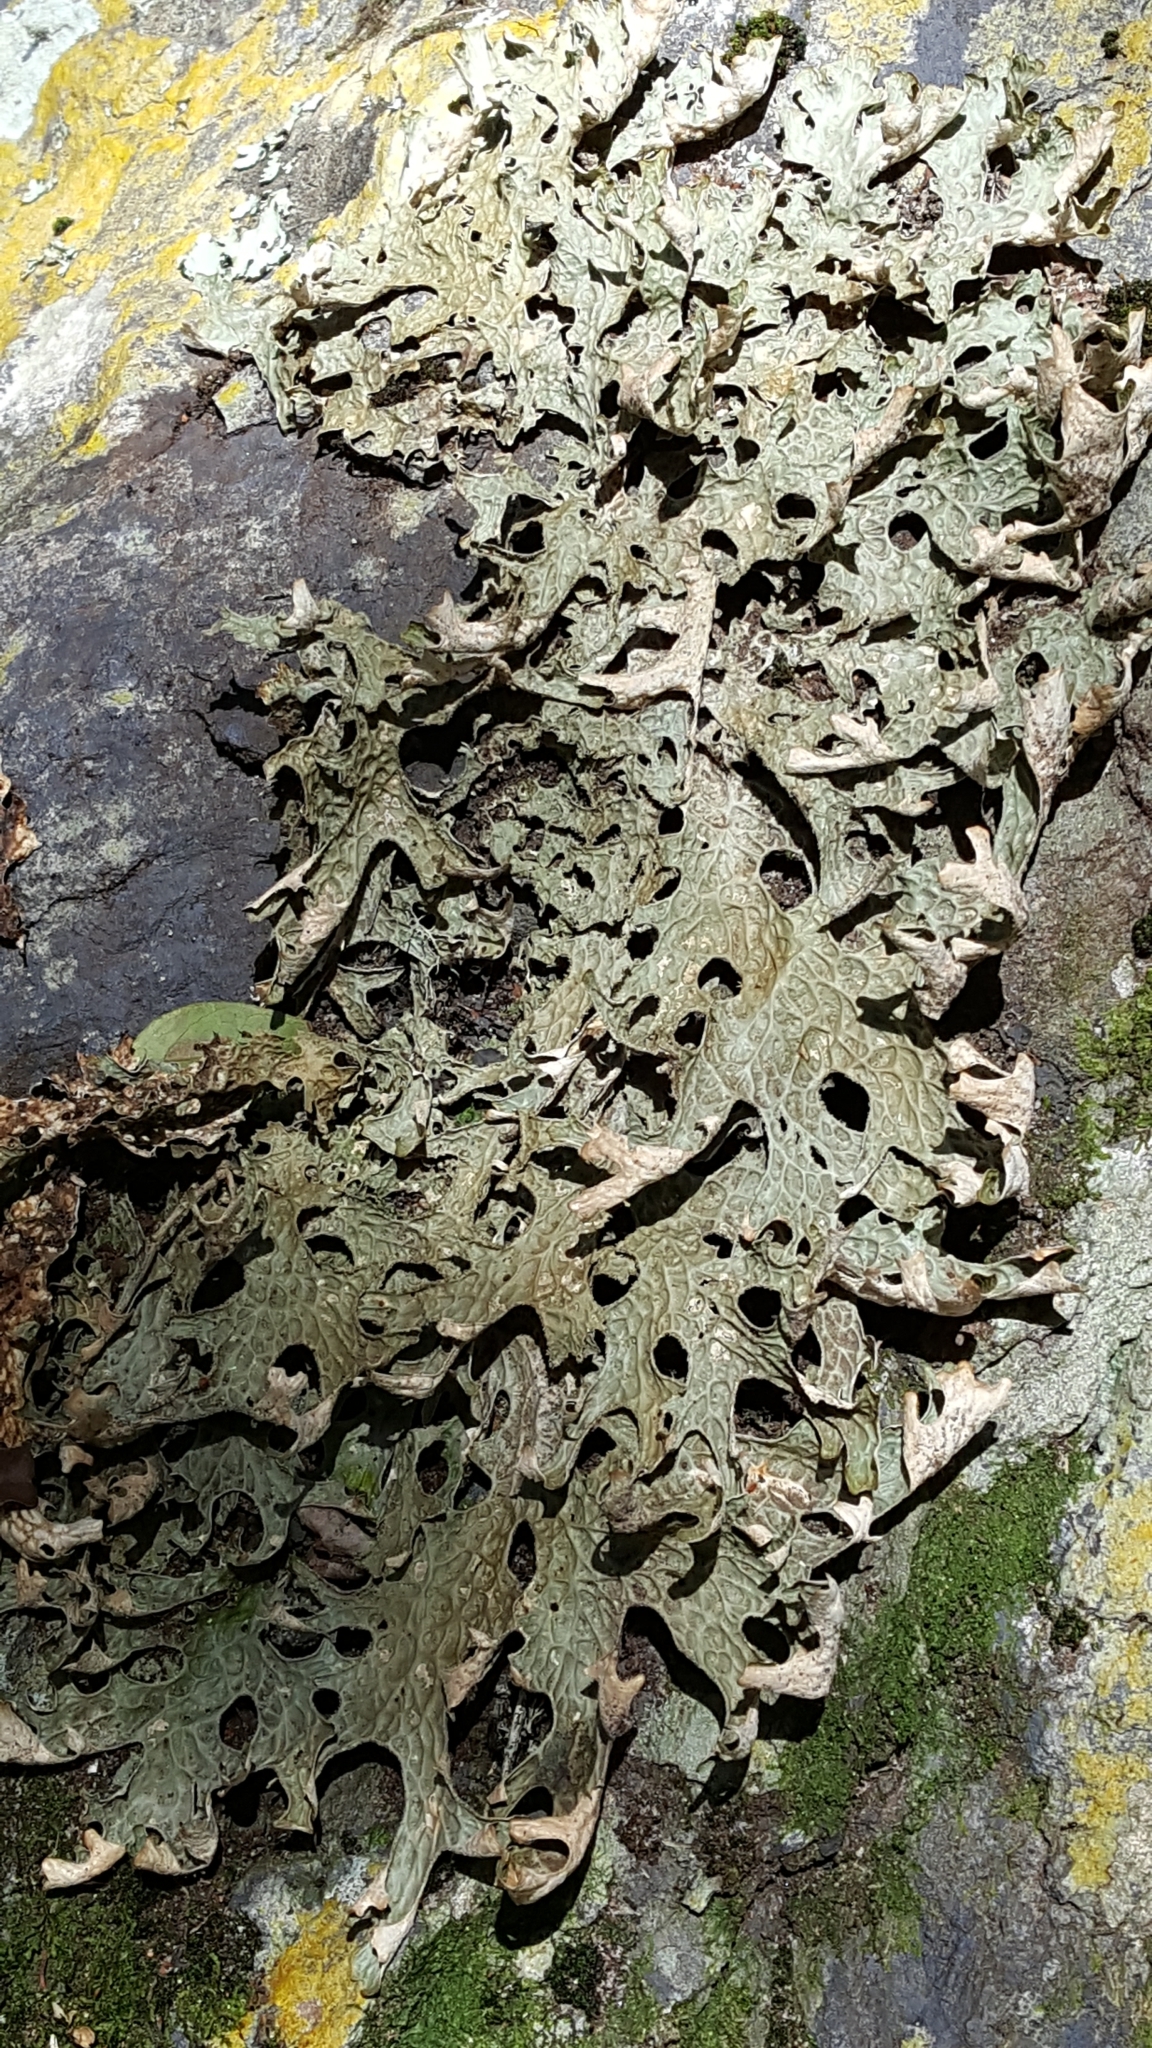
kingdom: Fungi
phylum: Ascomycota
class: Lecanoromycetes
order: Peltigerales
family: Lobariaceae
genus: Lobaria
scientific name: Lobaria pulmonaria
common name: Lungwort
